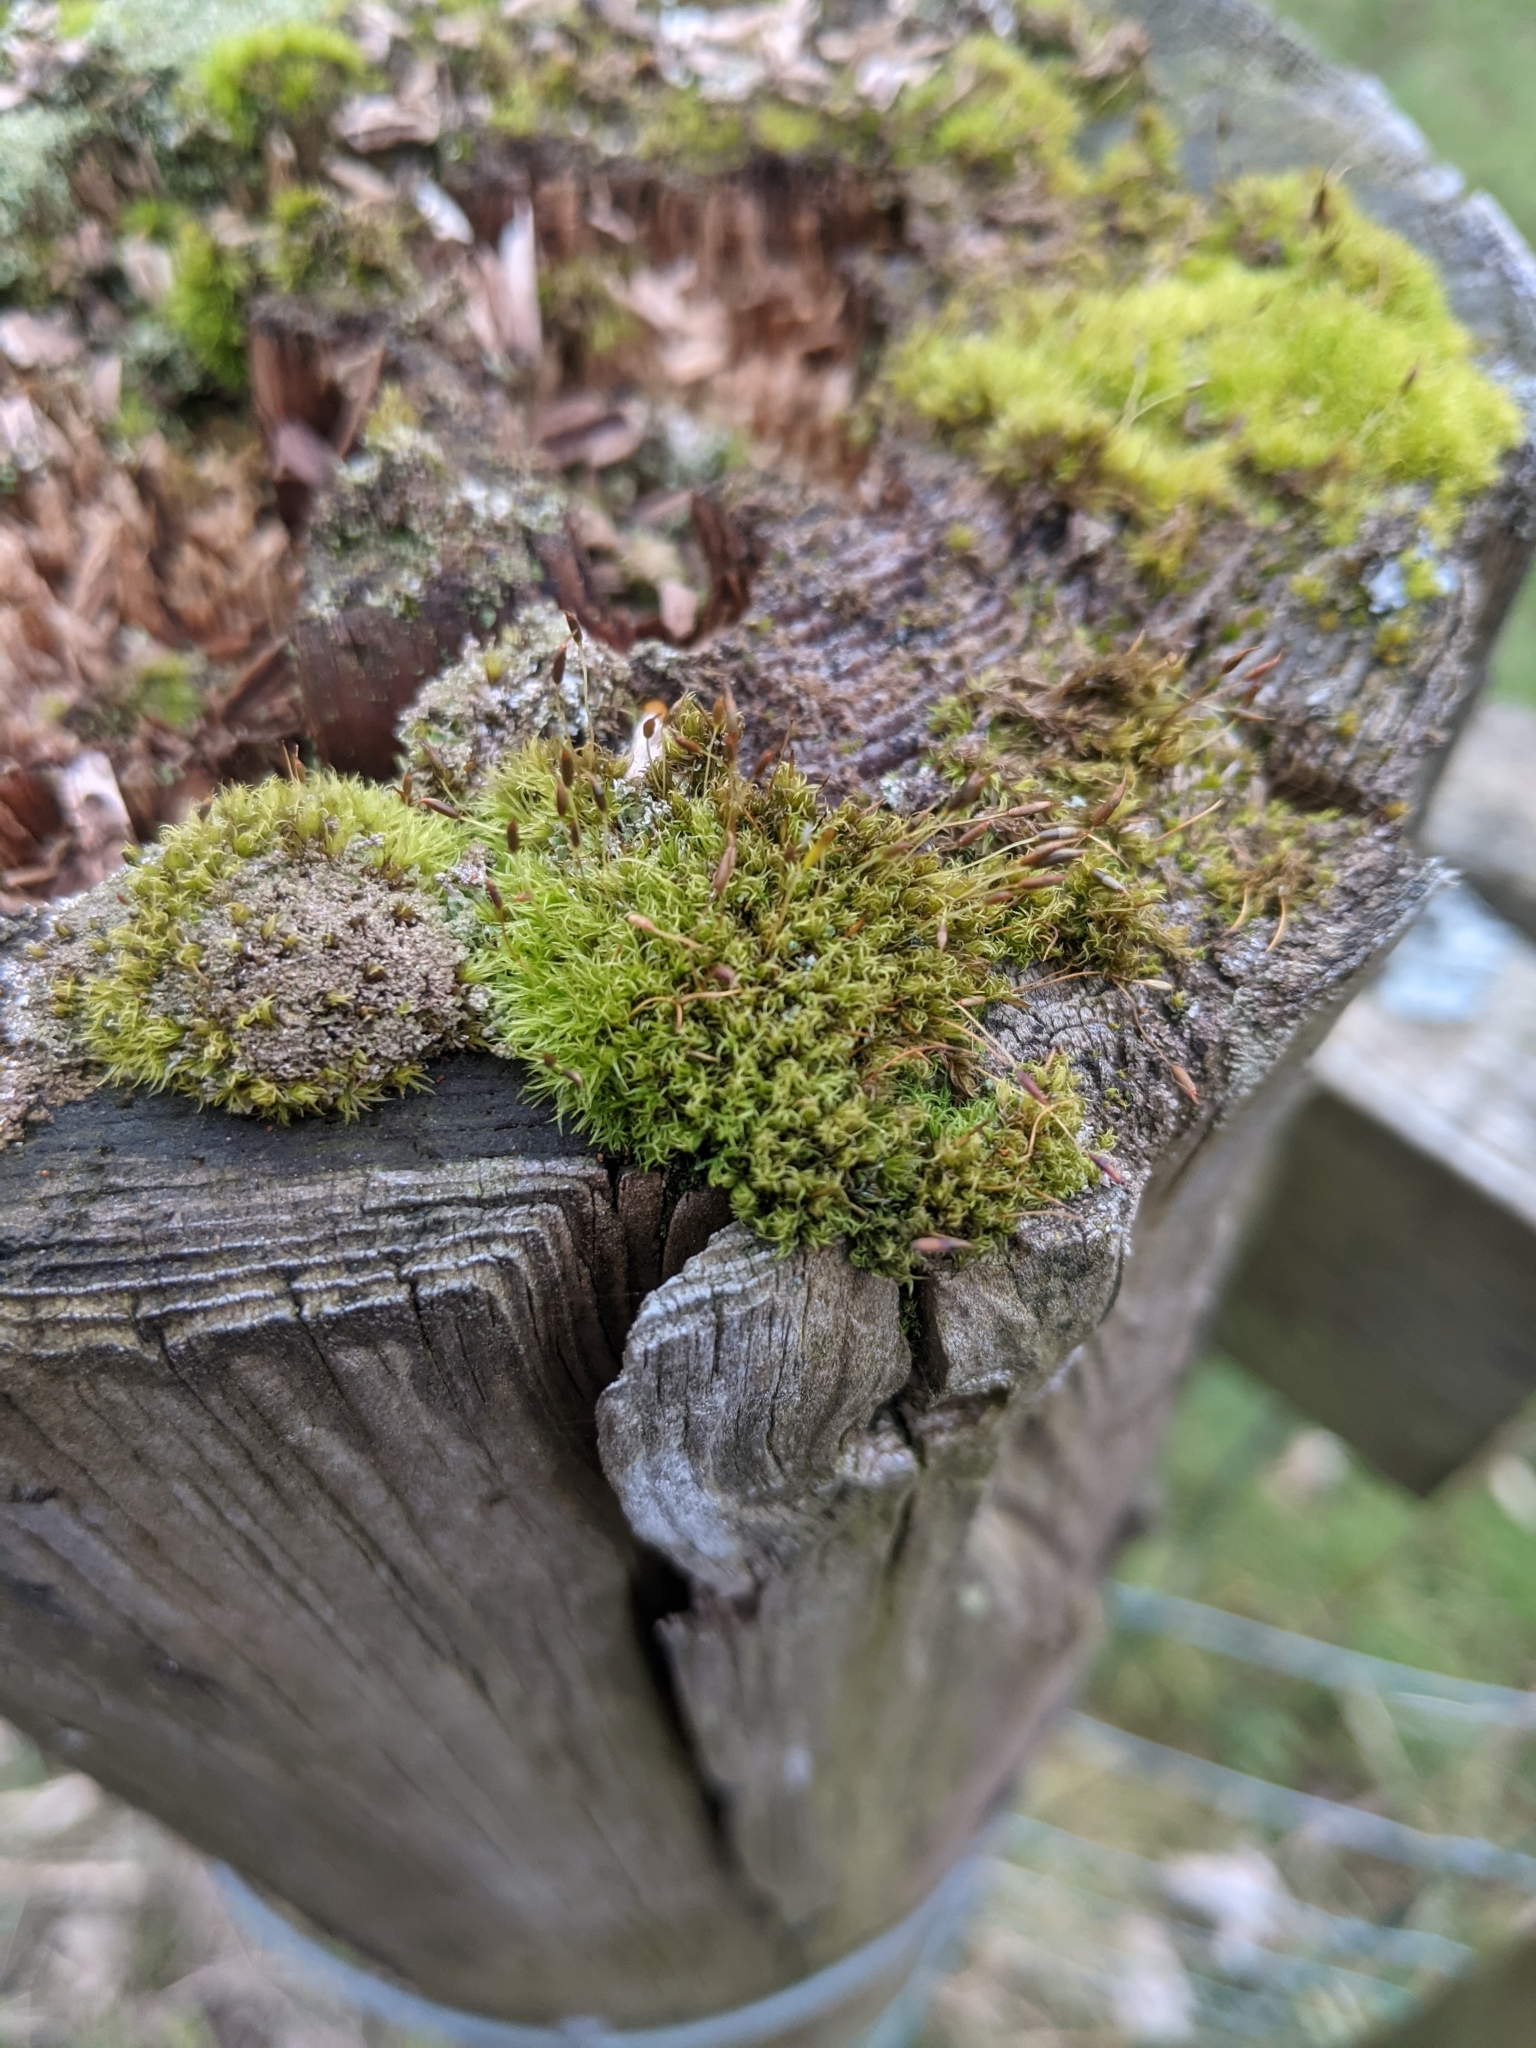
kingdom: Plantae
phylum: Bryophyta
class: Bryopsida
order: Dicranales
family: Rhabdoweisiaceae
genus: Dicranoweisia
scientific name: Dicranoweisia cirrata
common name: Common pincushion
